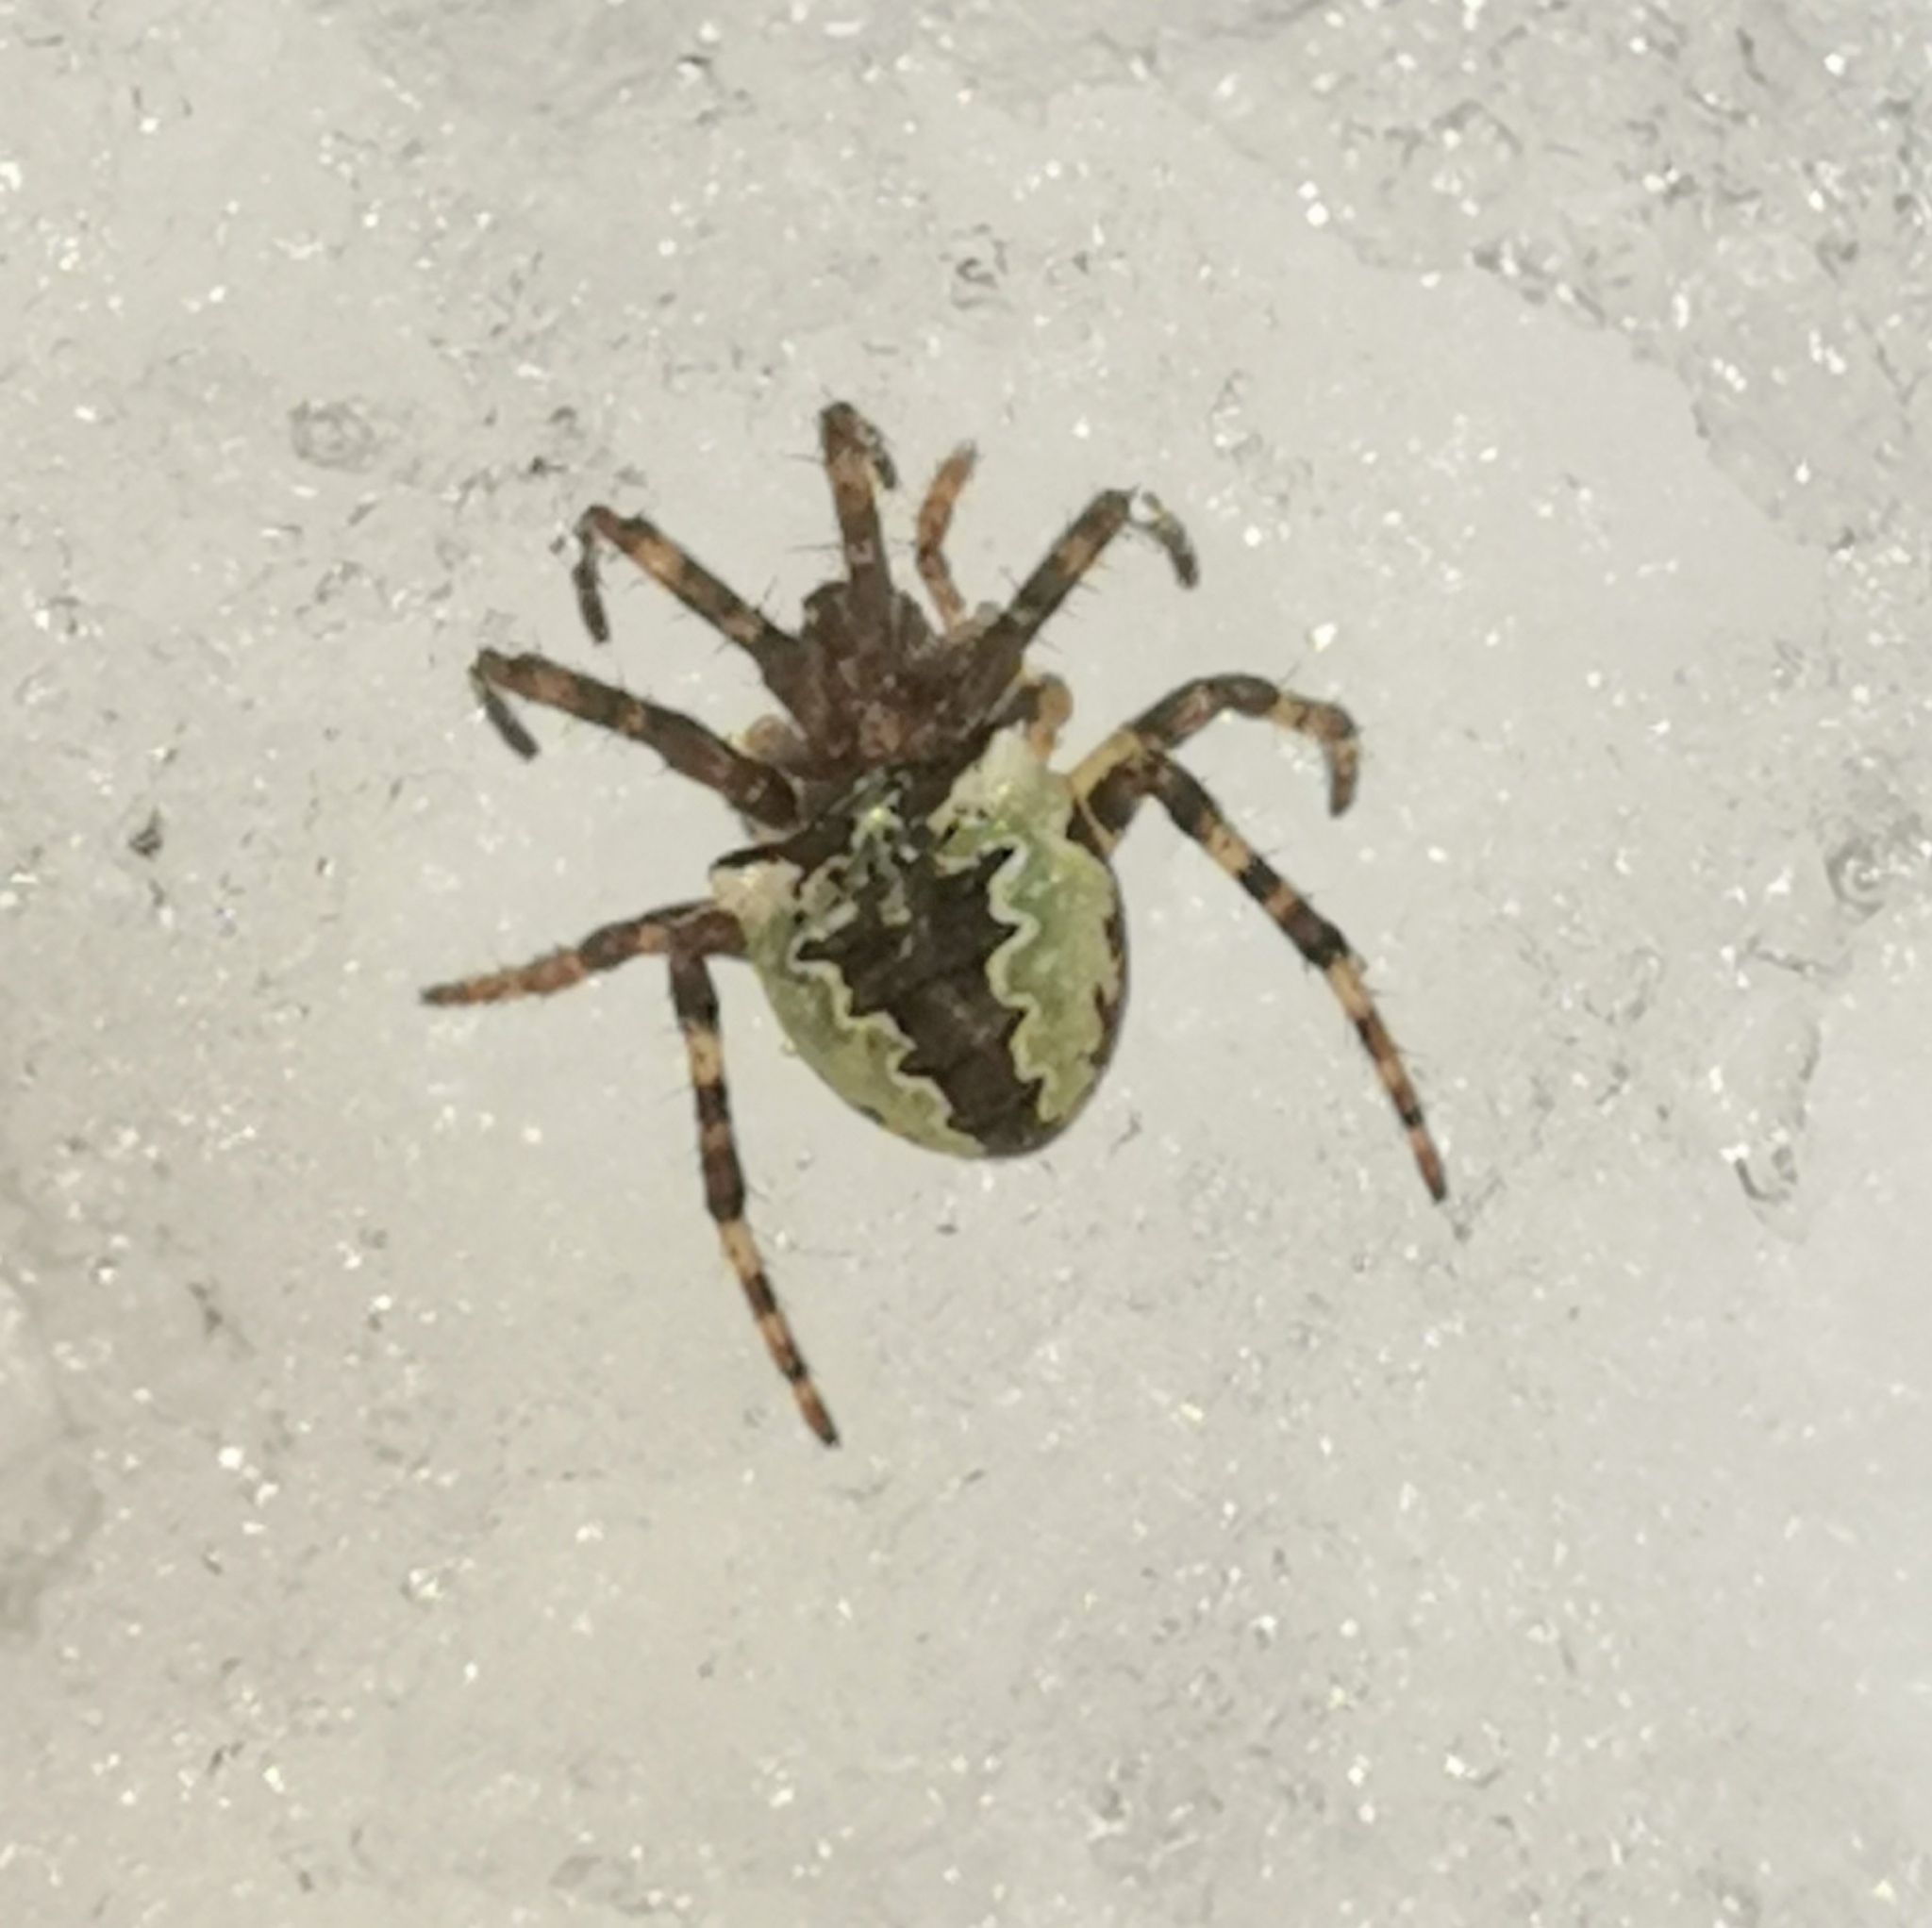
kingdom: Animalia
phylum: Arthropoda
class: Arachnida
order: Araneae
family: Araneidae
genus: Gibbaranea
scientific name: Gibbaranea omoeda
